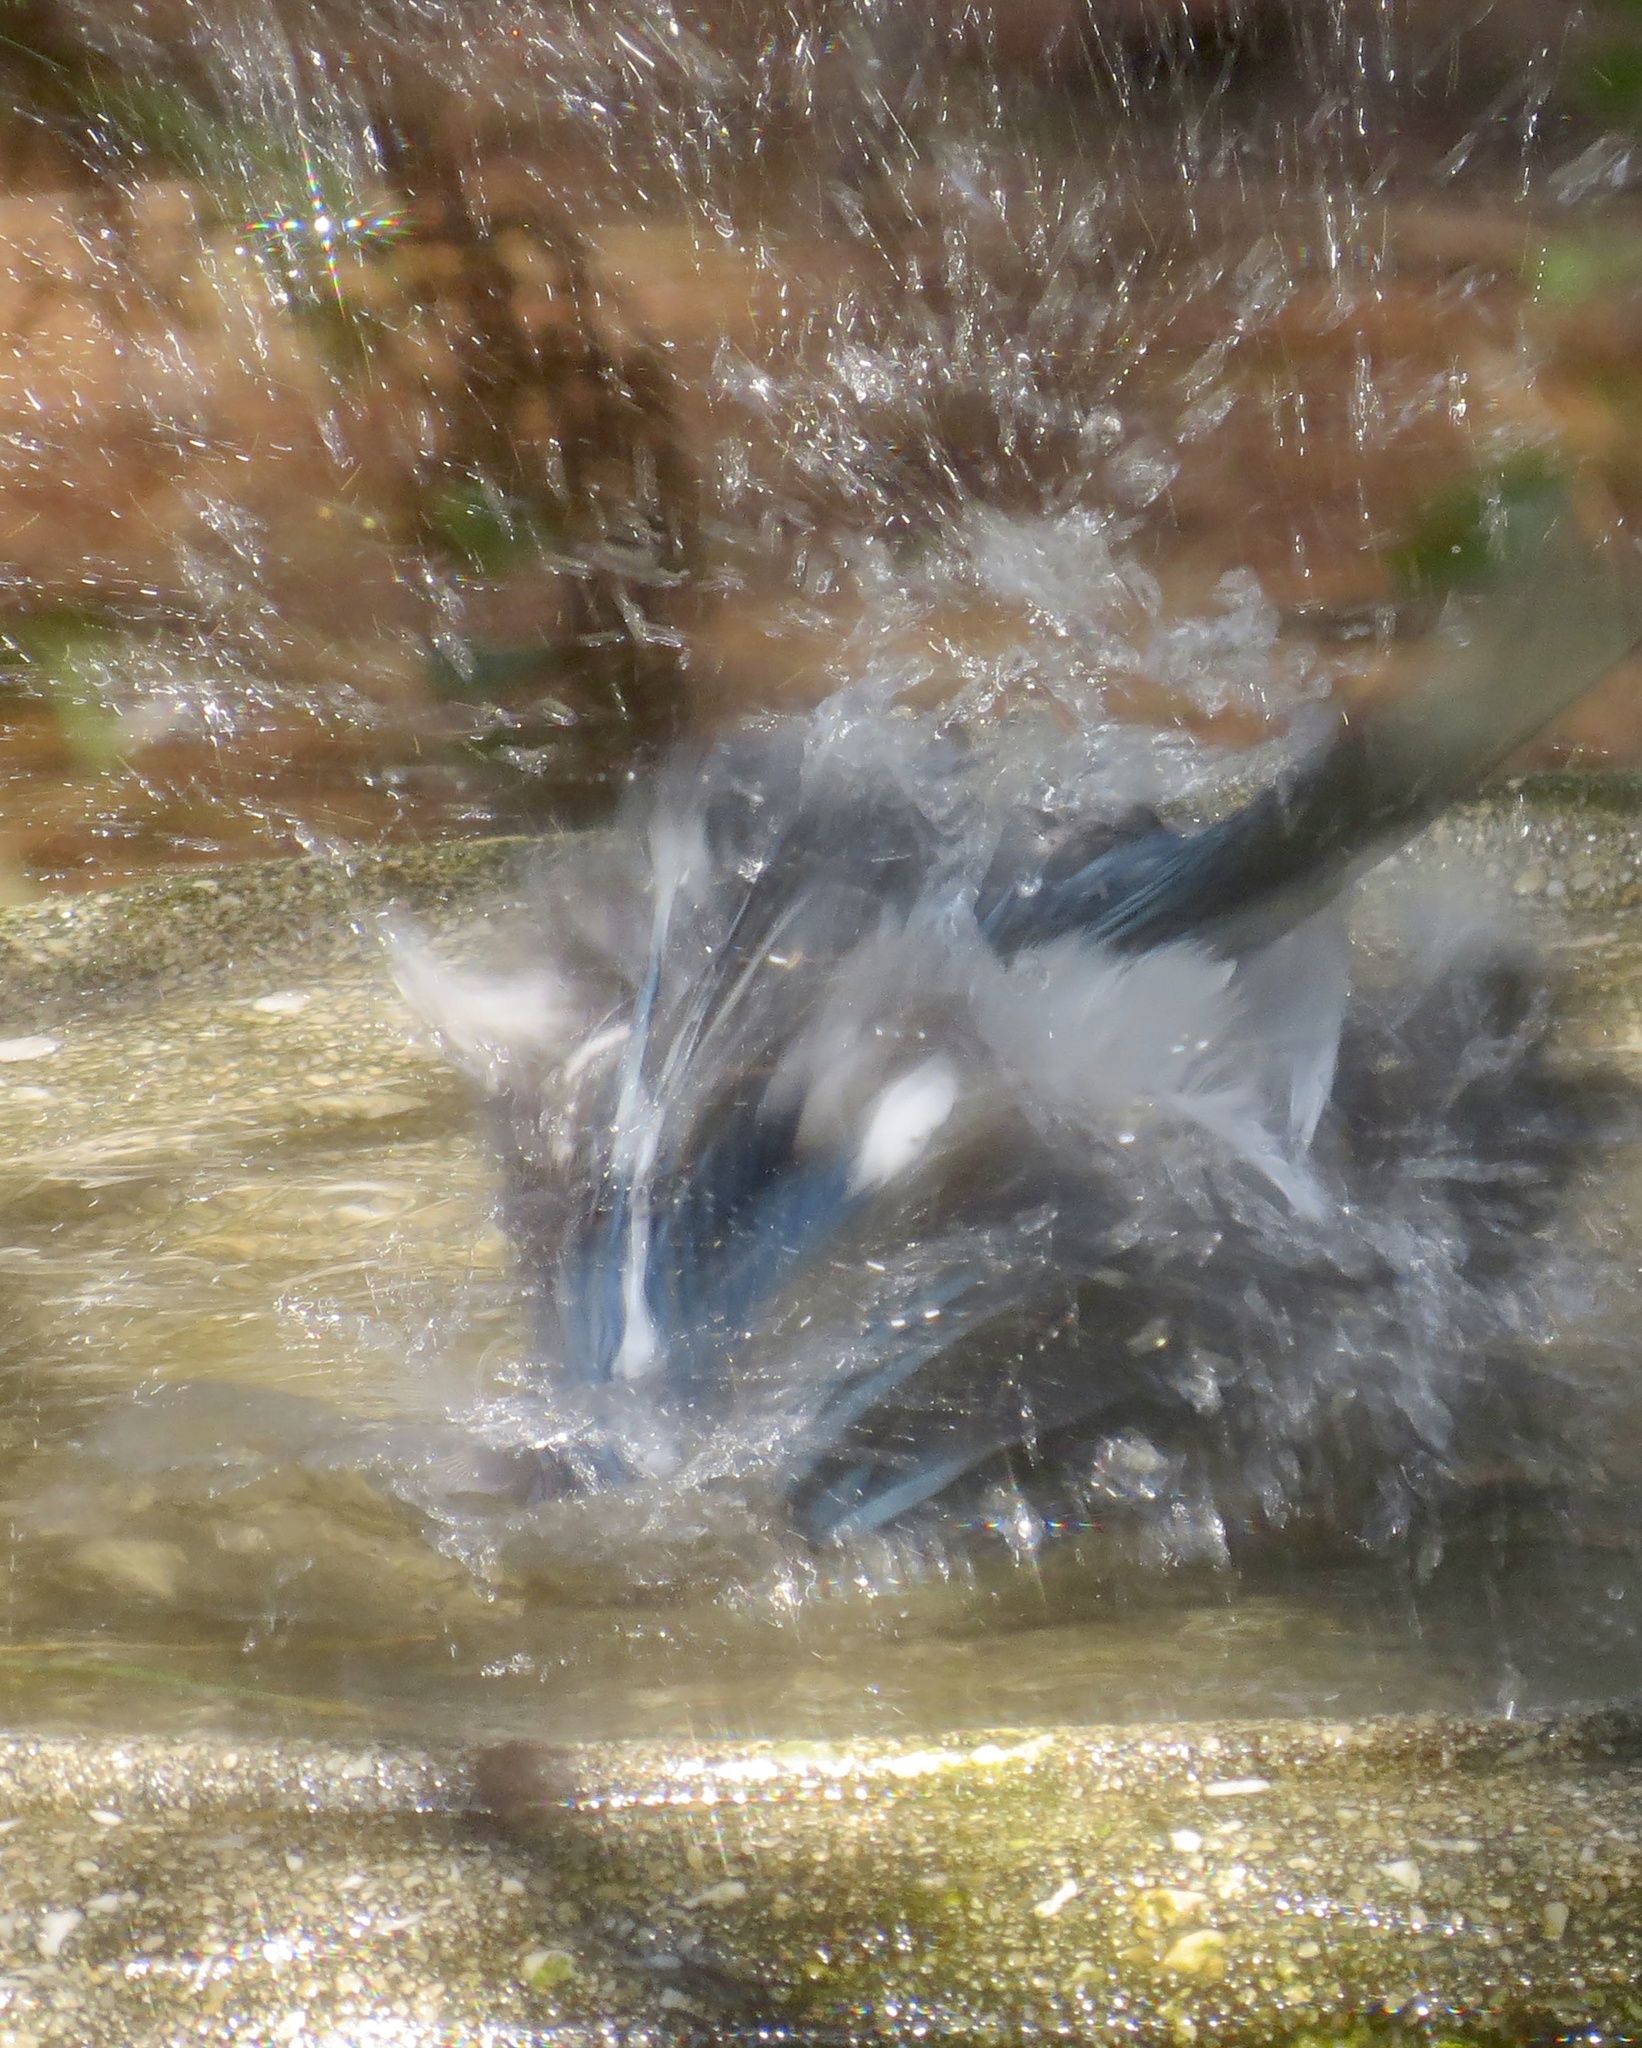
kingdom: Animalia
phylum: Chordata
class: Aves
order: Passeriformes
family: Corvidae
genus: Cyanocitta
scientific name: Cyanocitta cristata
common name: Blue jay
